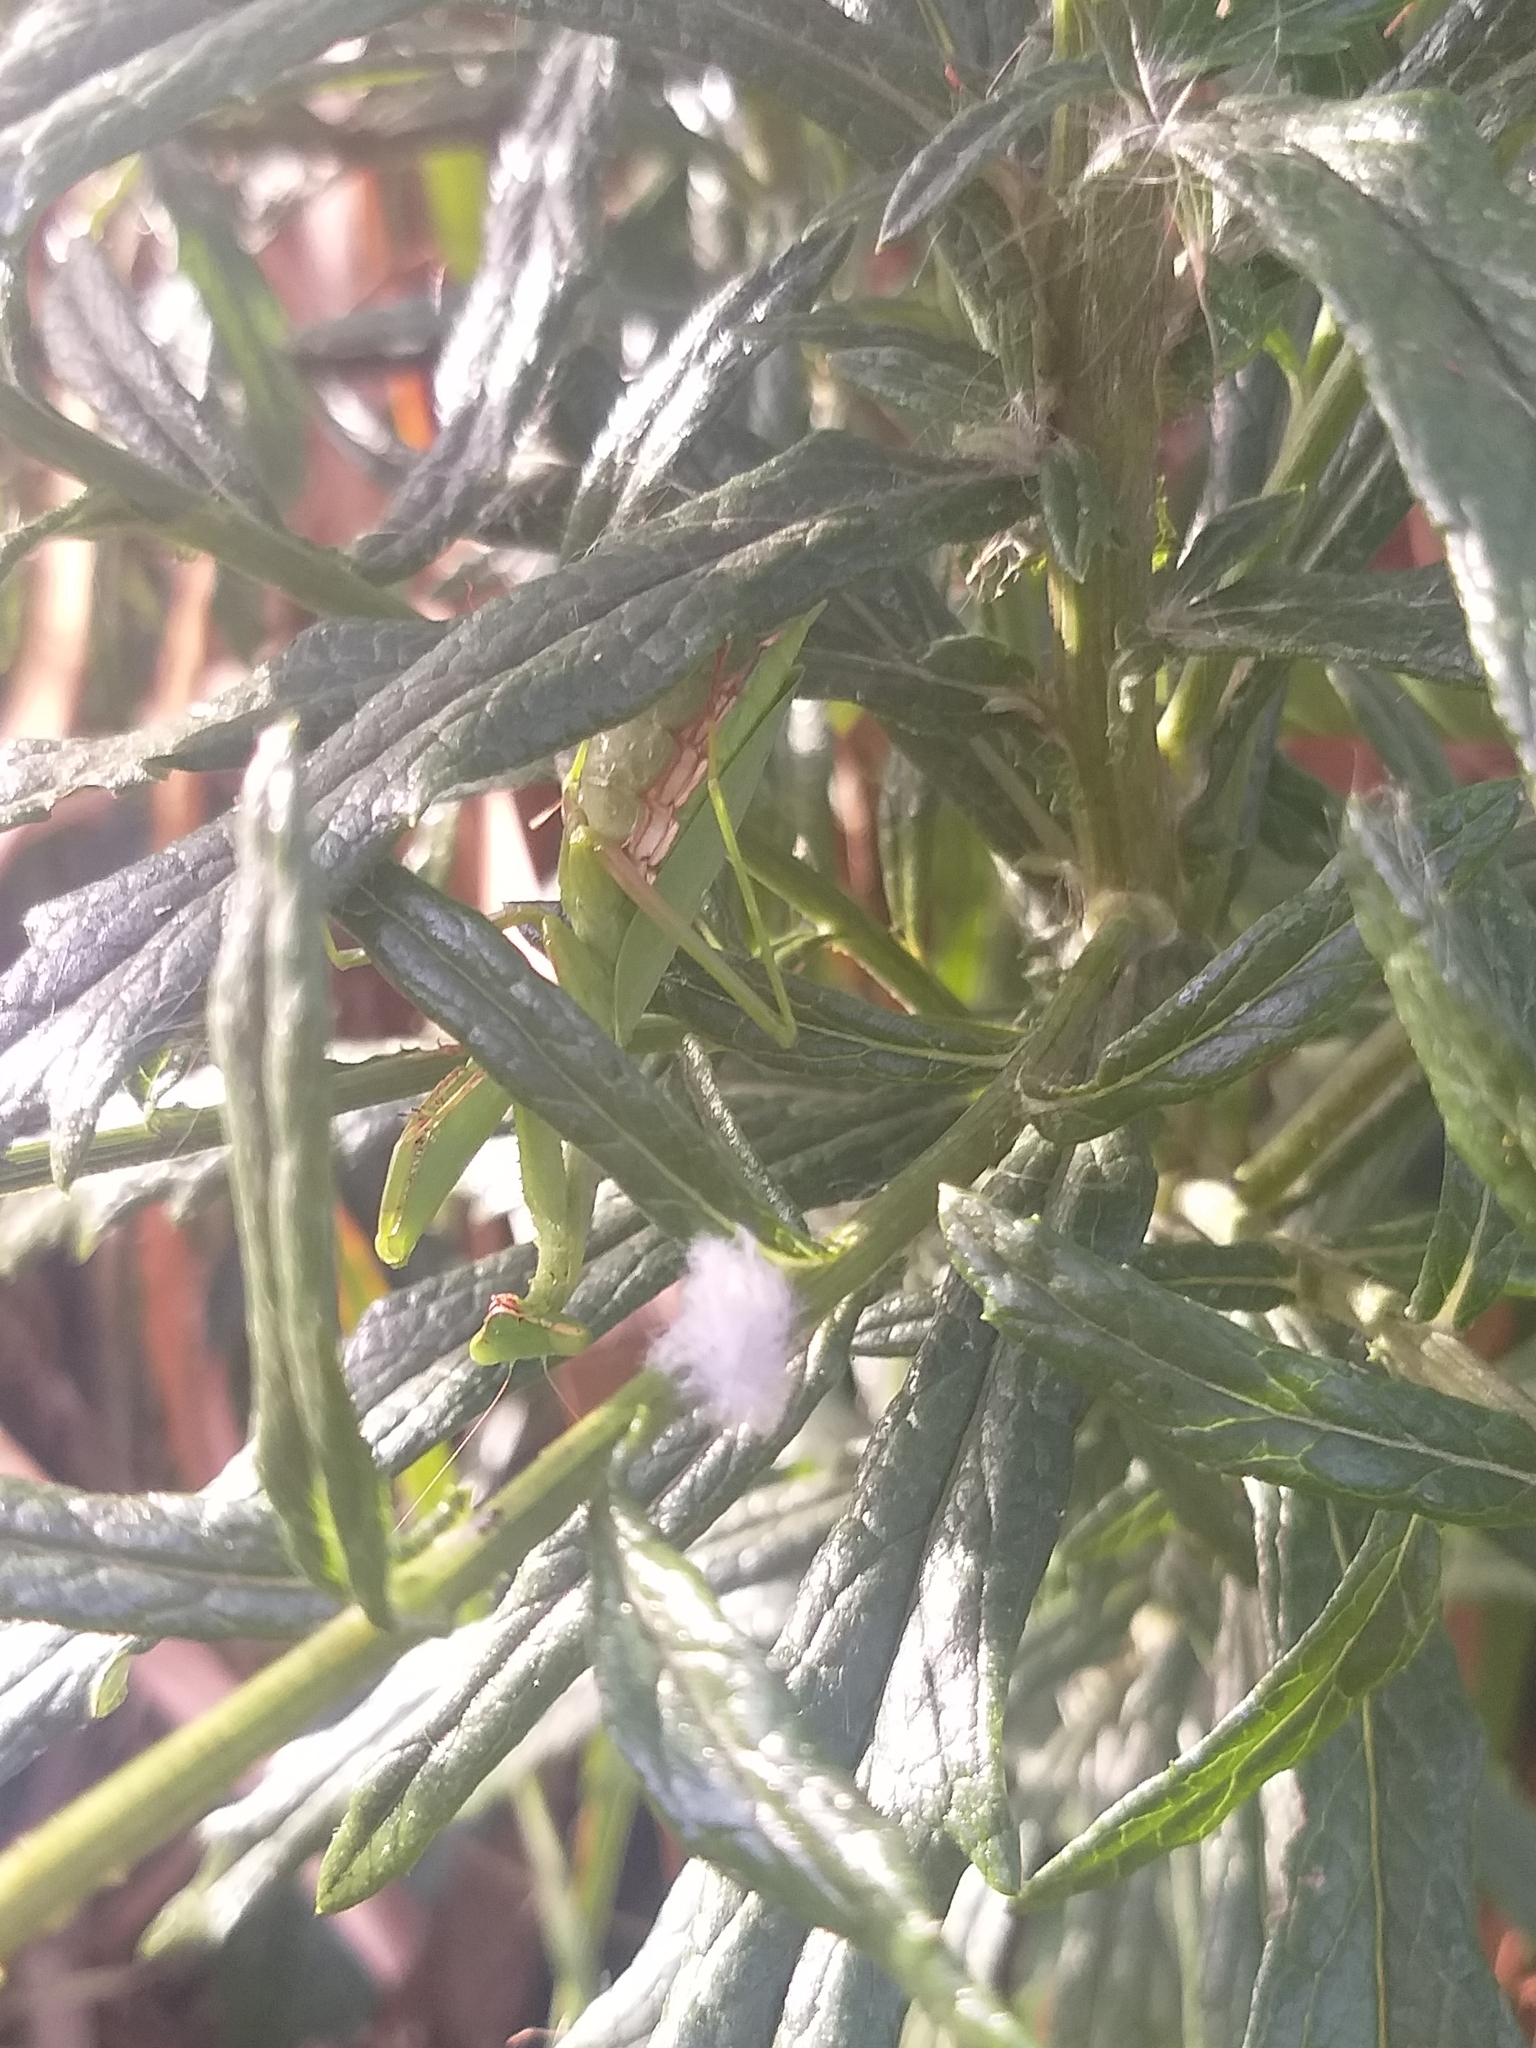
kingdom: Animalia
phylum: Arthropoda
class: Insecta
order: Mantodea
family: Miomantidae
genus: Miomantis
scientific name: Miomantis caffra
